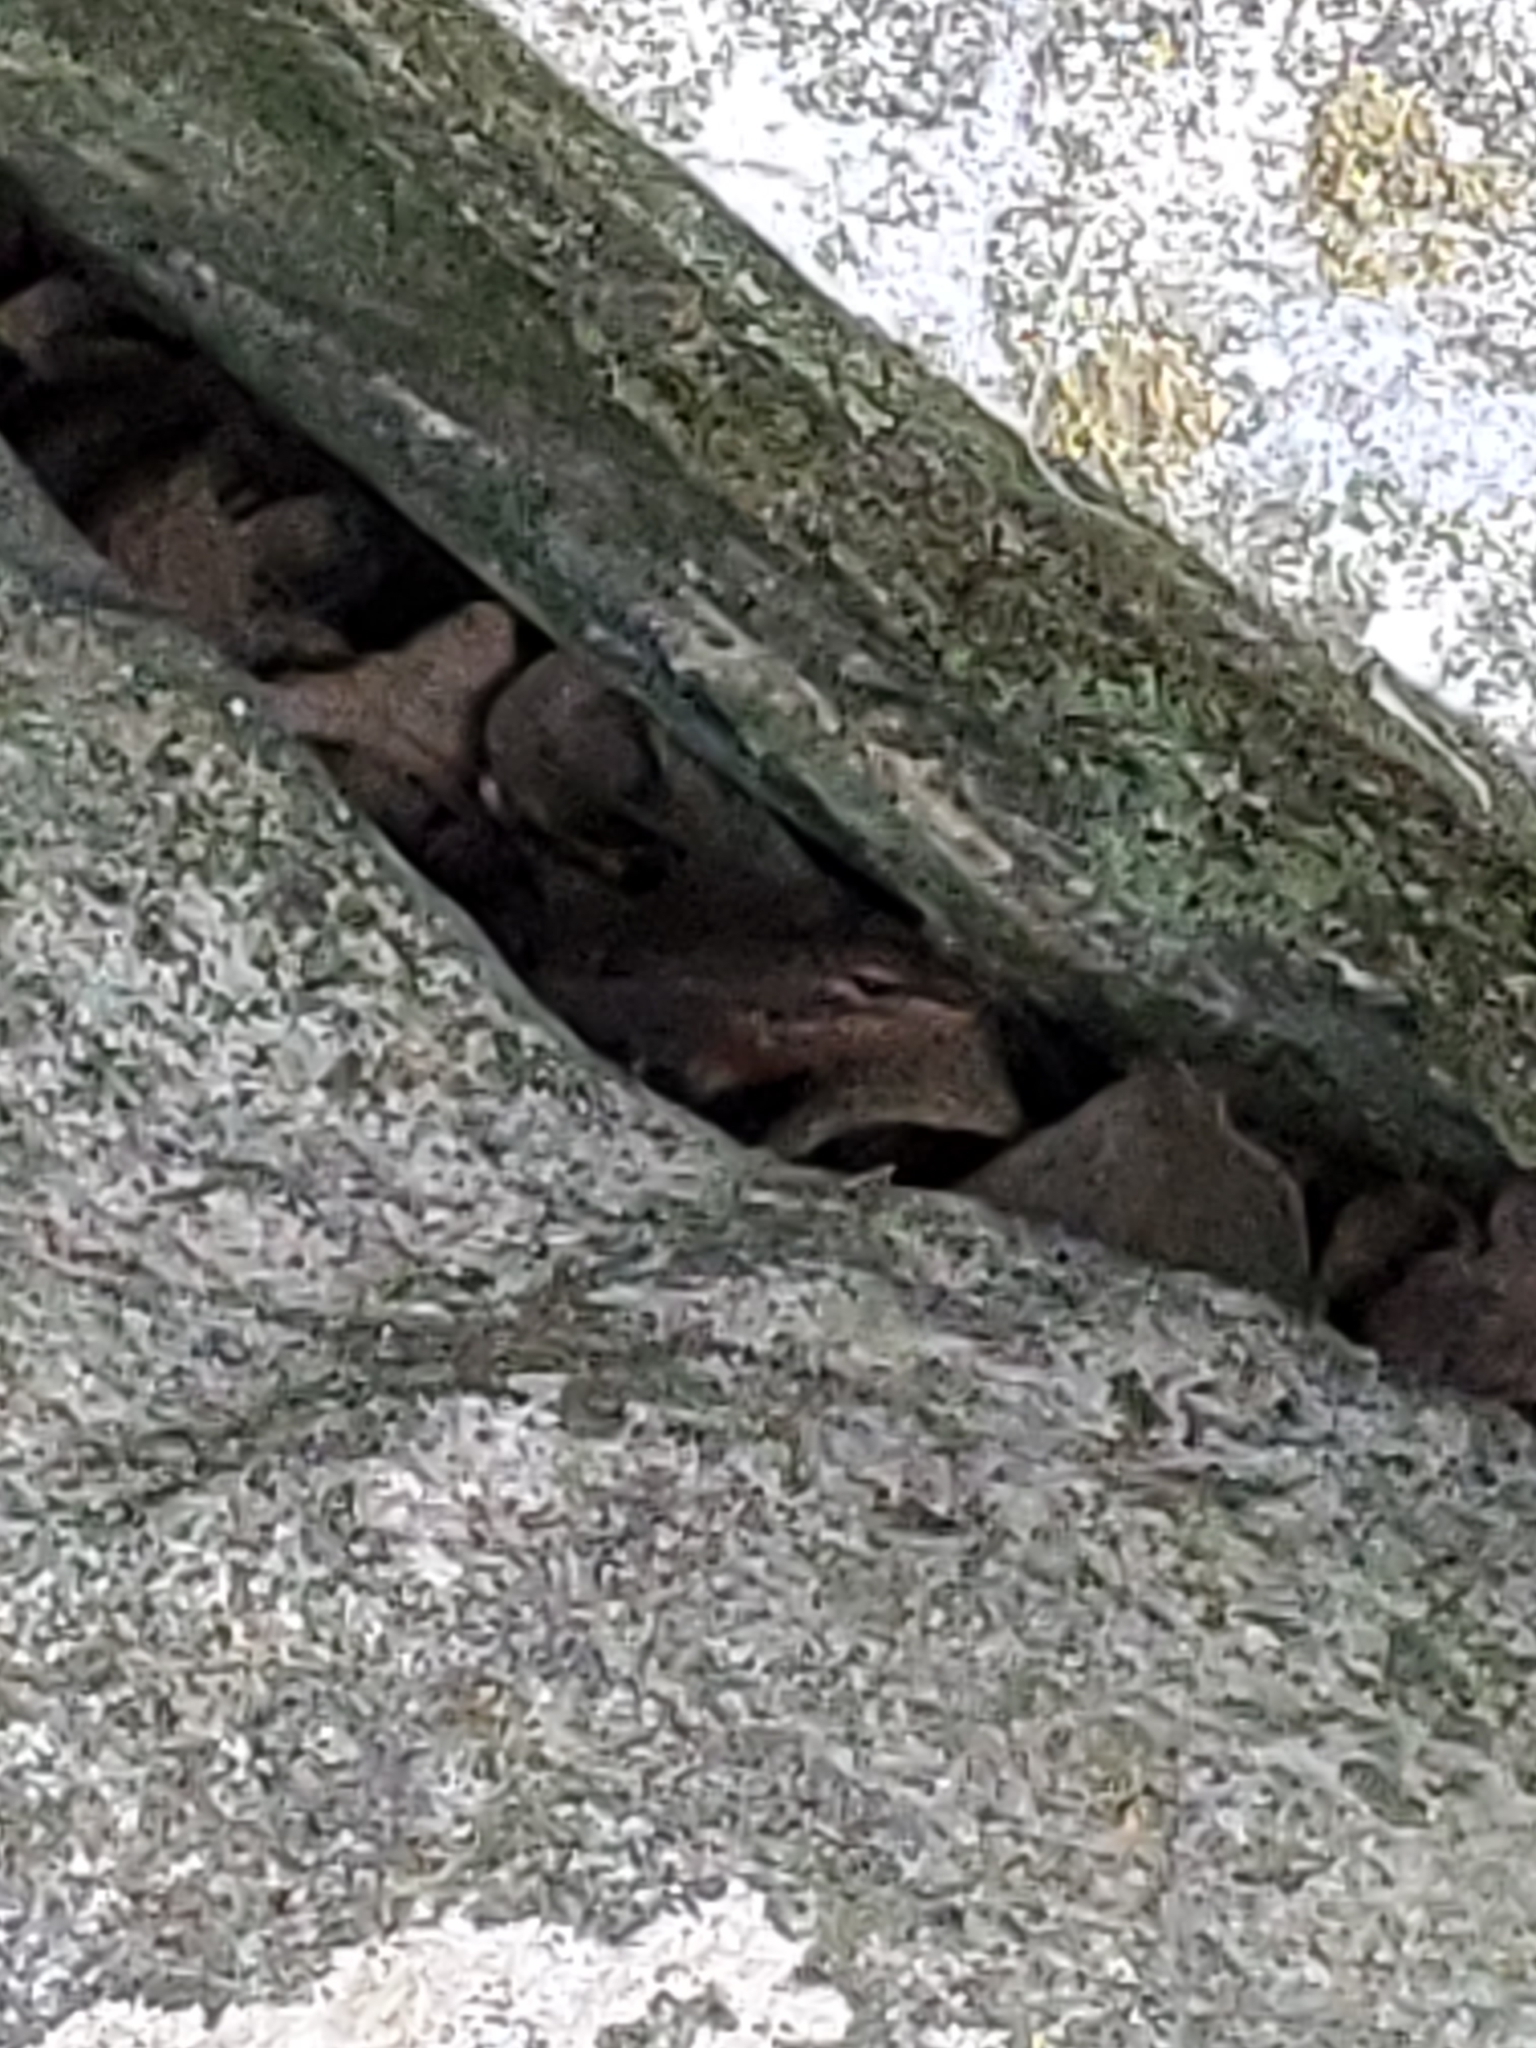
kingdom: Animalia
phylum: Chordata
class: Squamata
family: Phrynosomatidae
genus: Sceloporus
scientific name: Sceloporus variabilis
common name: Rosebelly lizard
